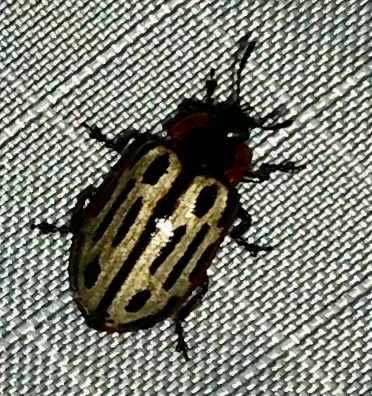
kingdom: Animalia
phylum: Arthropoda
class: Insecta
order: Coleoptera
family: Chrysomelidae
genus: Aethiopocassis
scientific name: Aethiopocassis scripta
